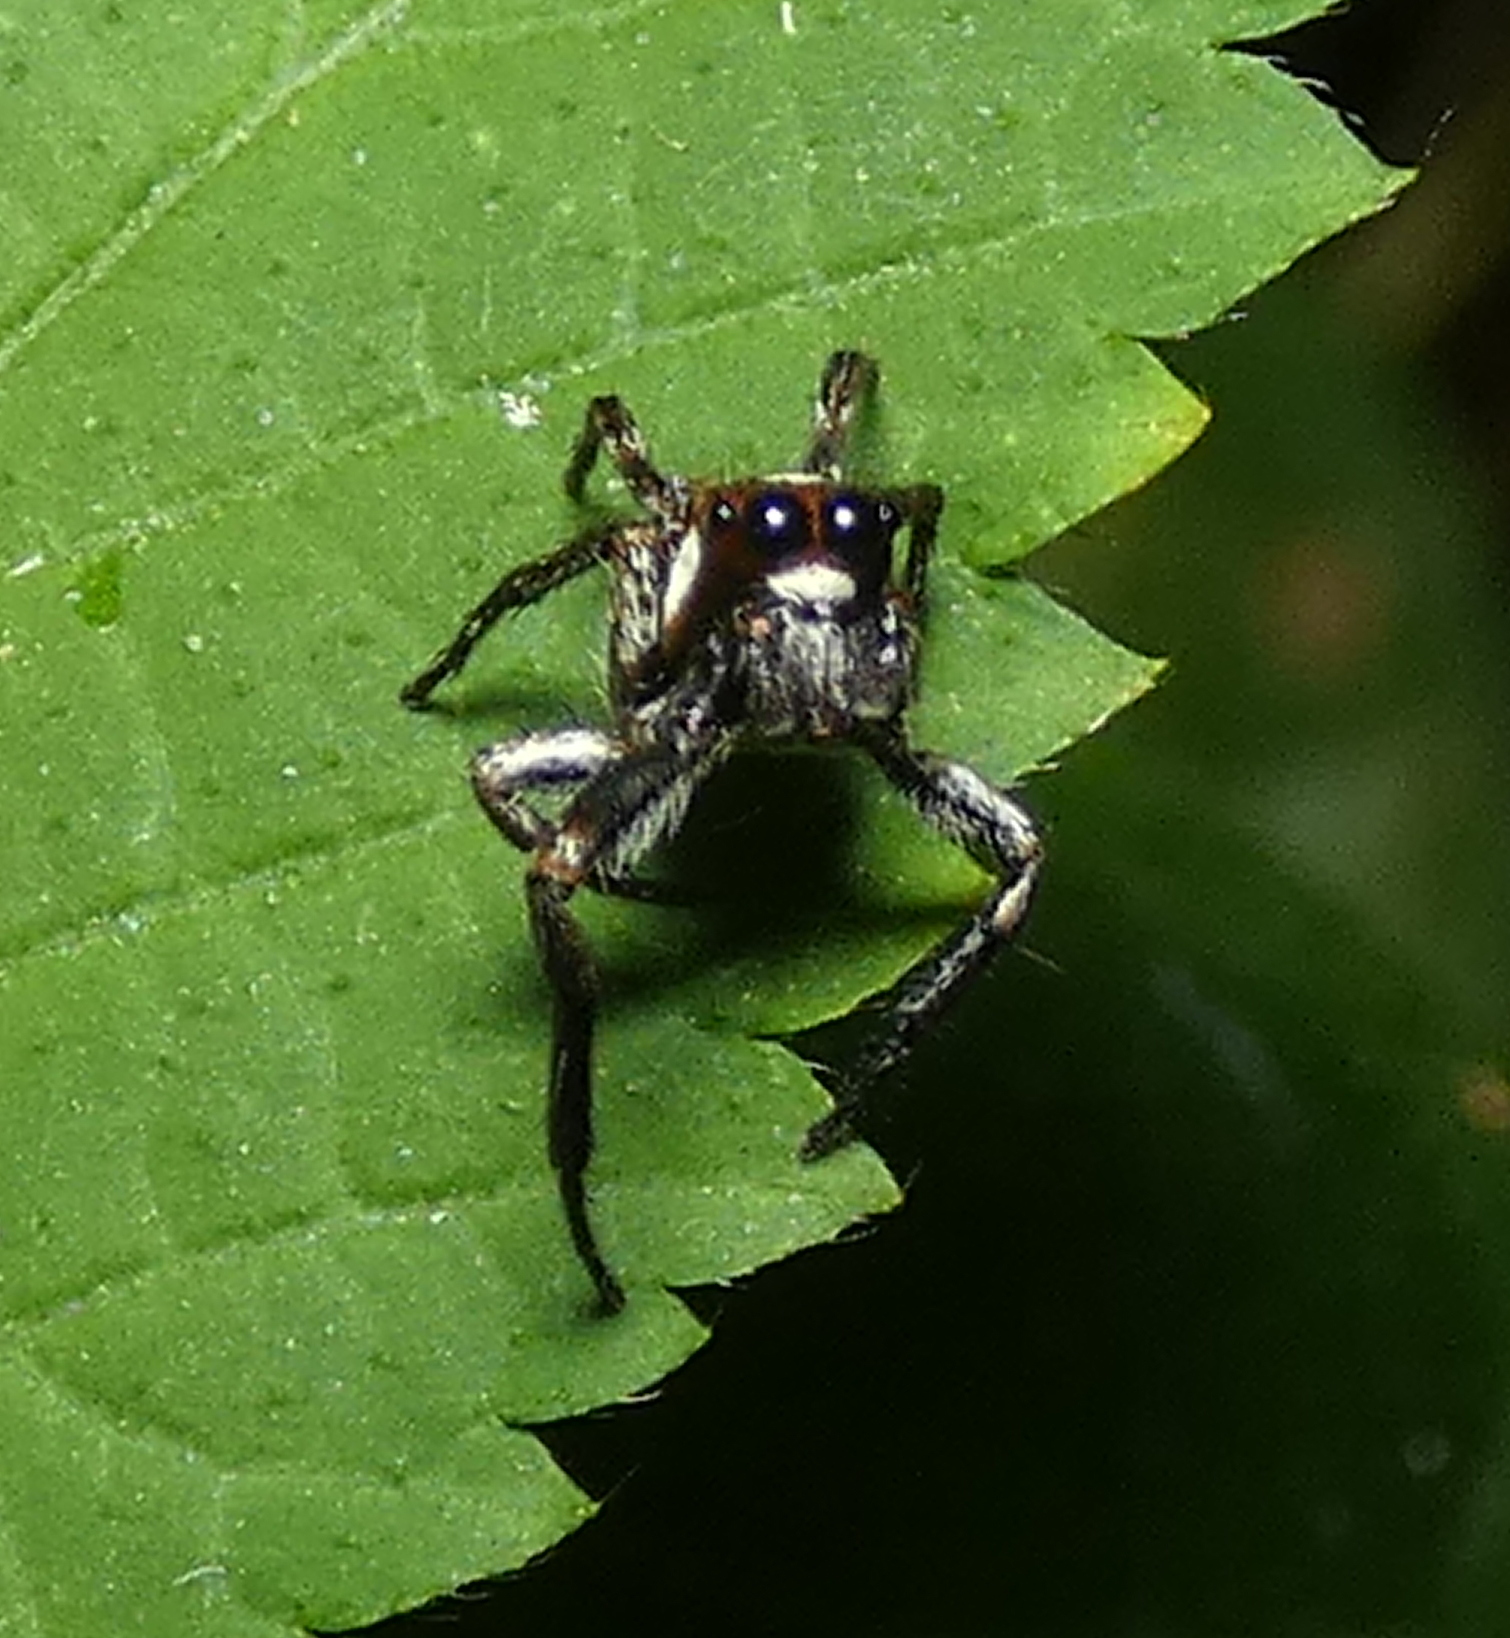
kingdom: Animalia
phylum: Arthropoda
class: Arachnida
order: Araneae
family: Salticidae
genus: Nycerella
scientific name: Nycerella aprica
